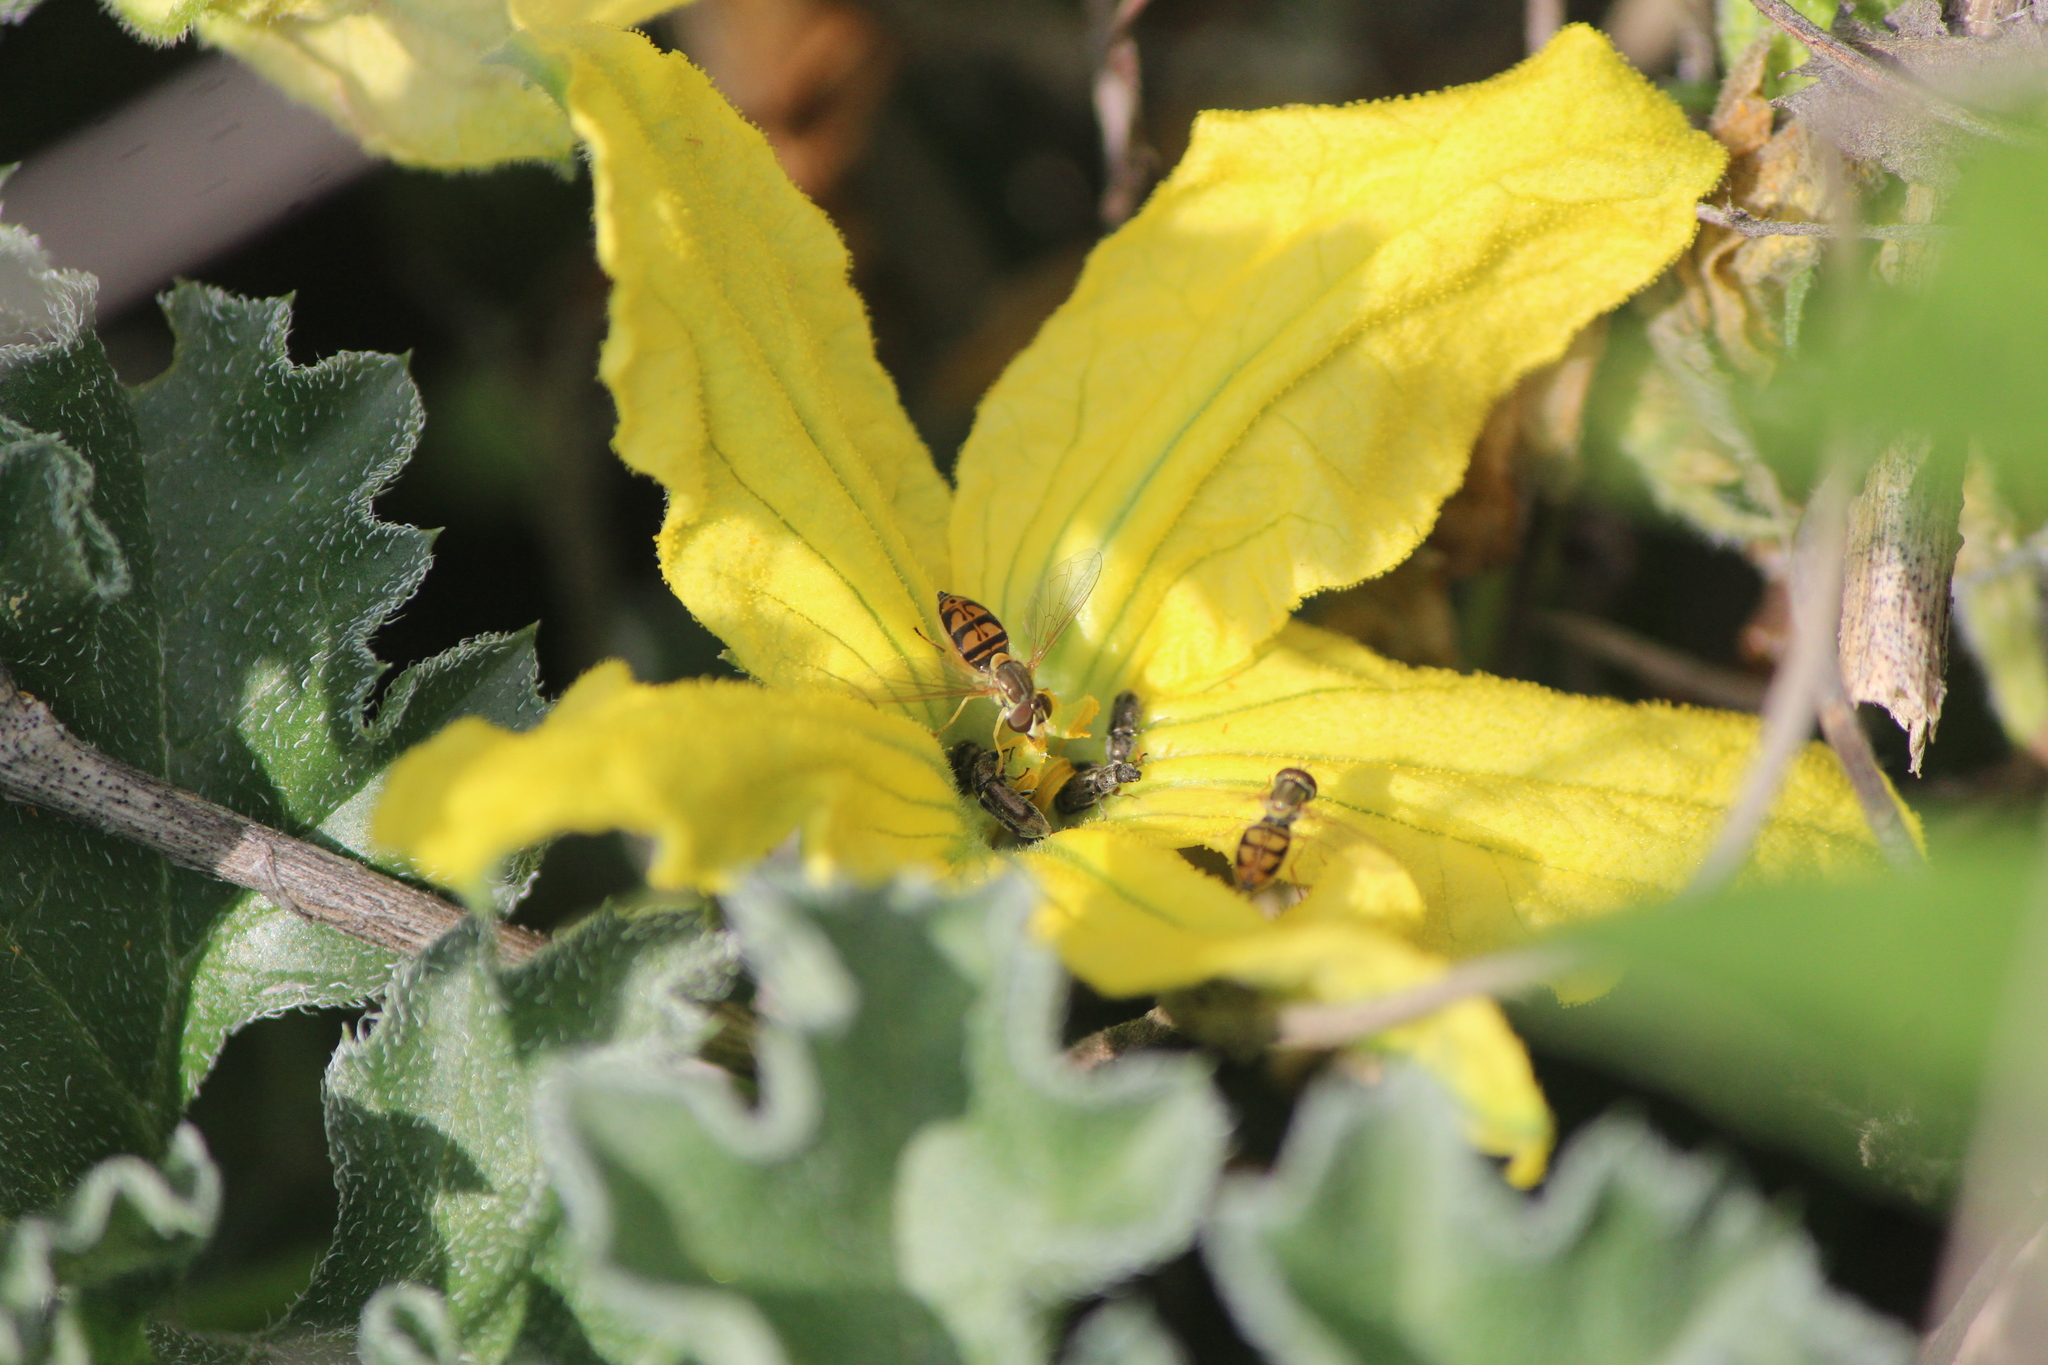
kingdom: Animalia
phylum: Arthropoda
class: Insecta
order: Diptera
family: Syrphidae
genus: Toxomerus
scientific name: Toxomerus marginatus
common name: Syrphid fly
